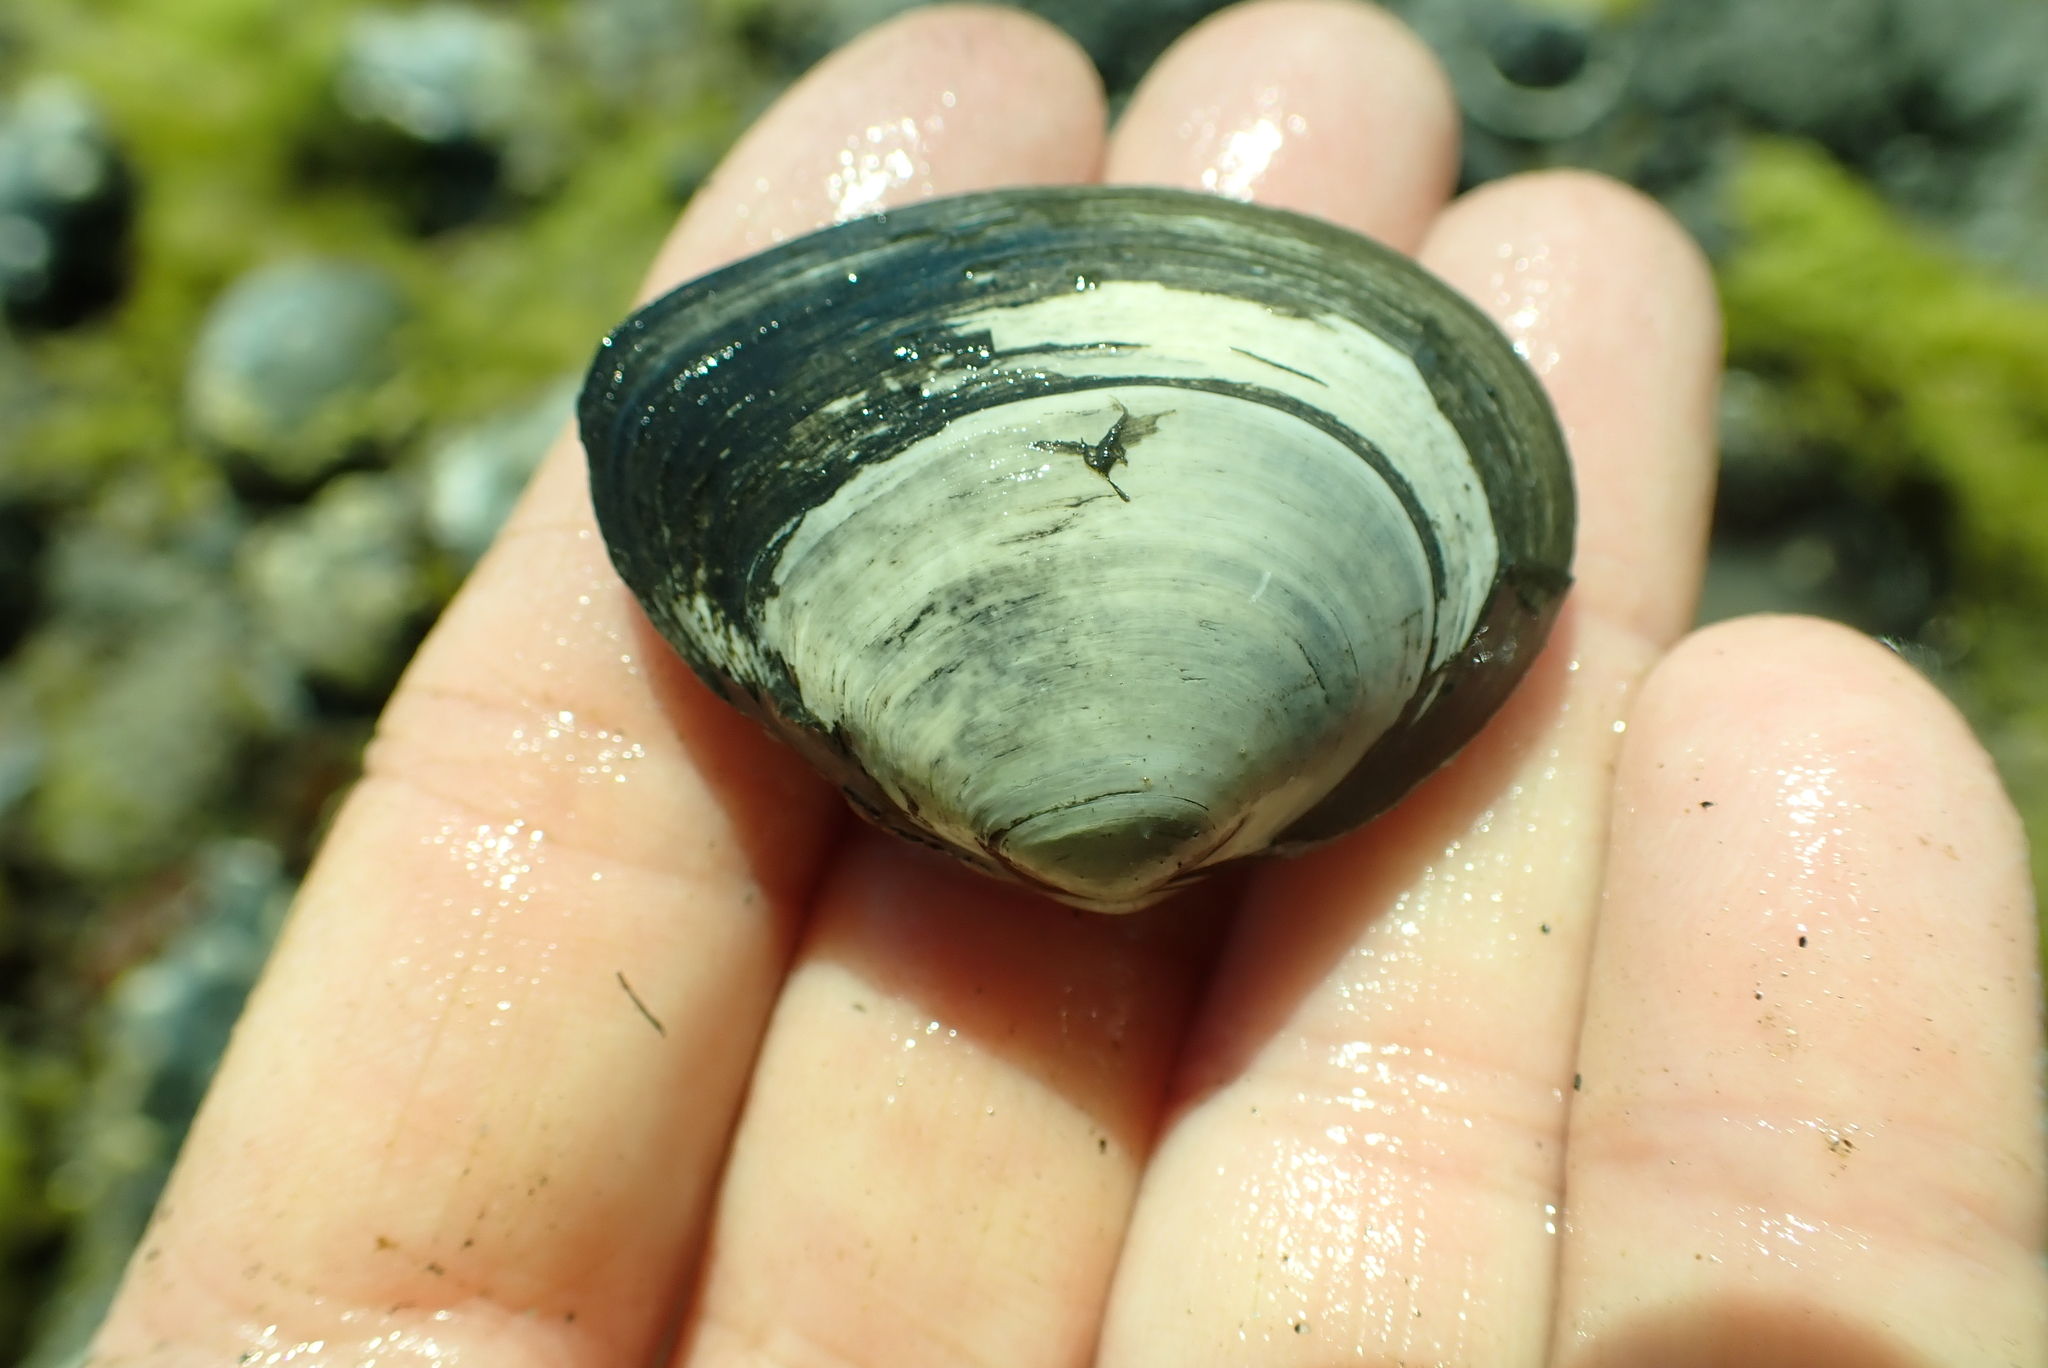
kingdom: Animalia
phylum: Mollusca
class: Bivalvia
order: Cardiida
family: Tellinidae
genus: Macoma
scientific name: Macoma inquinata
